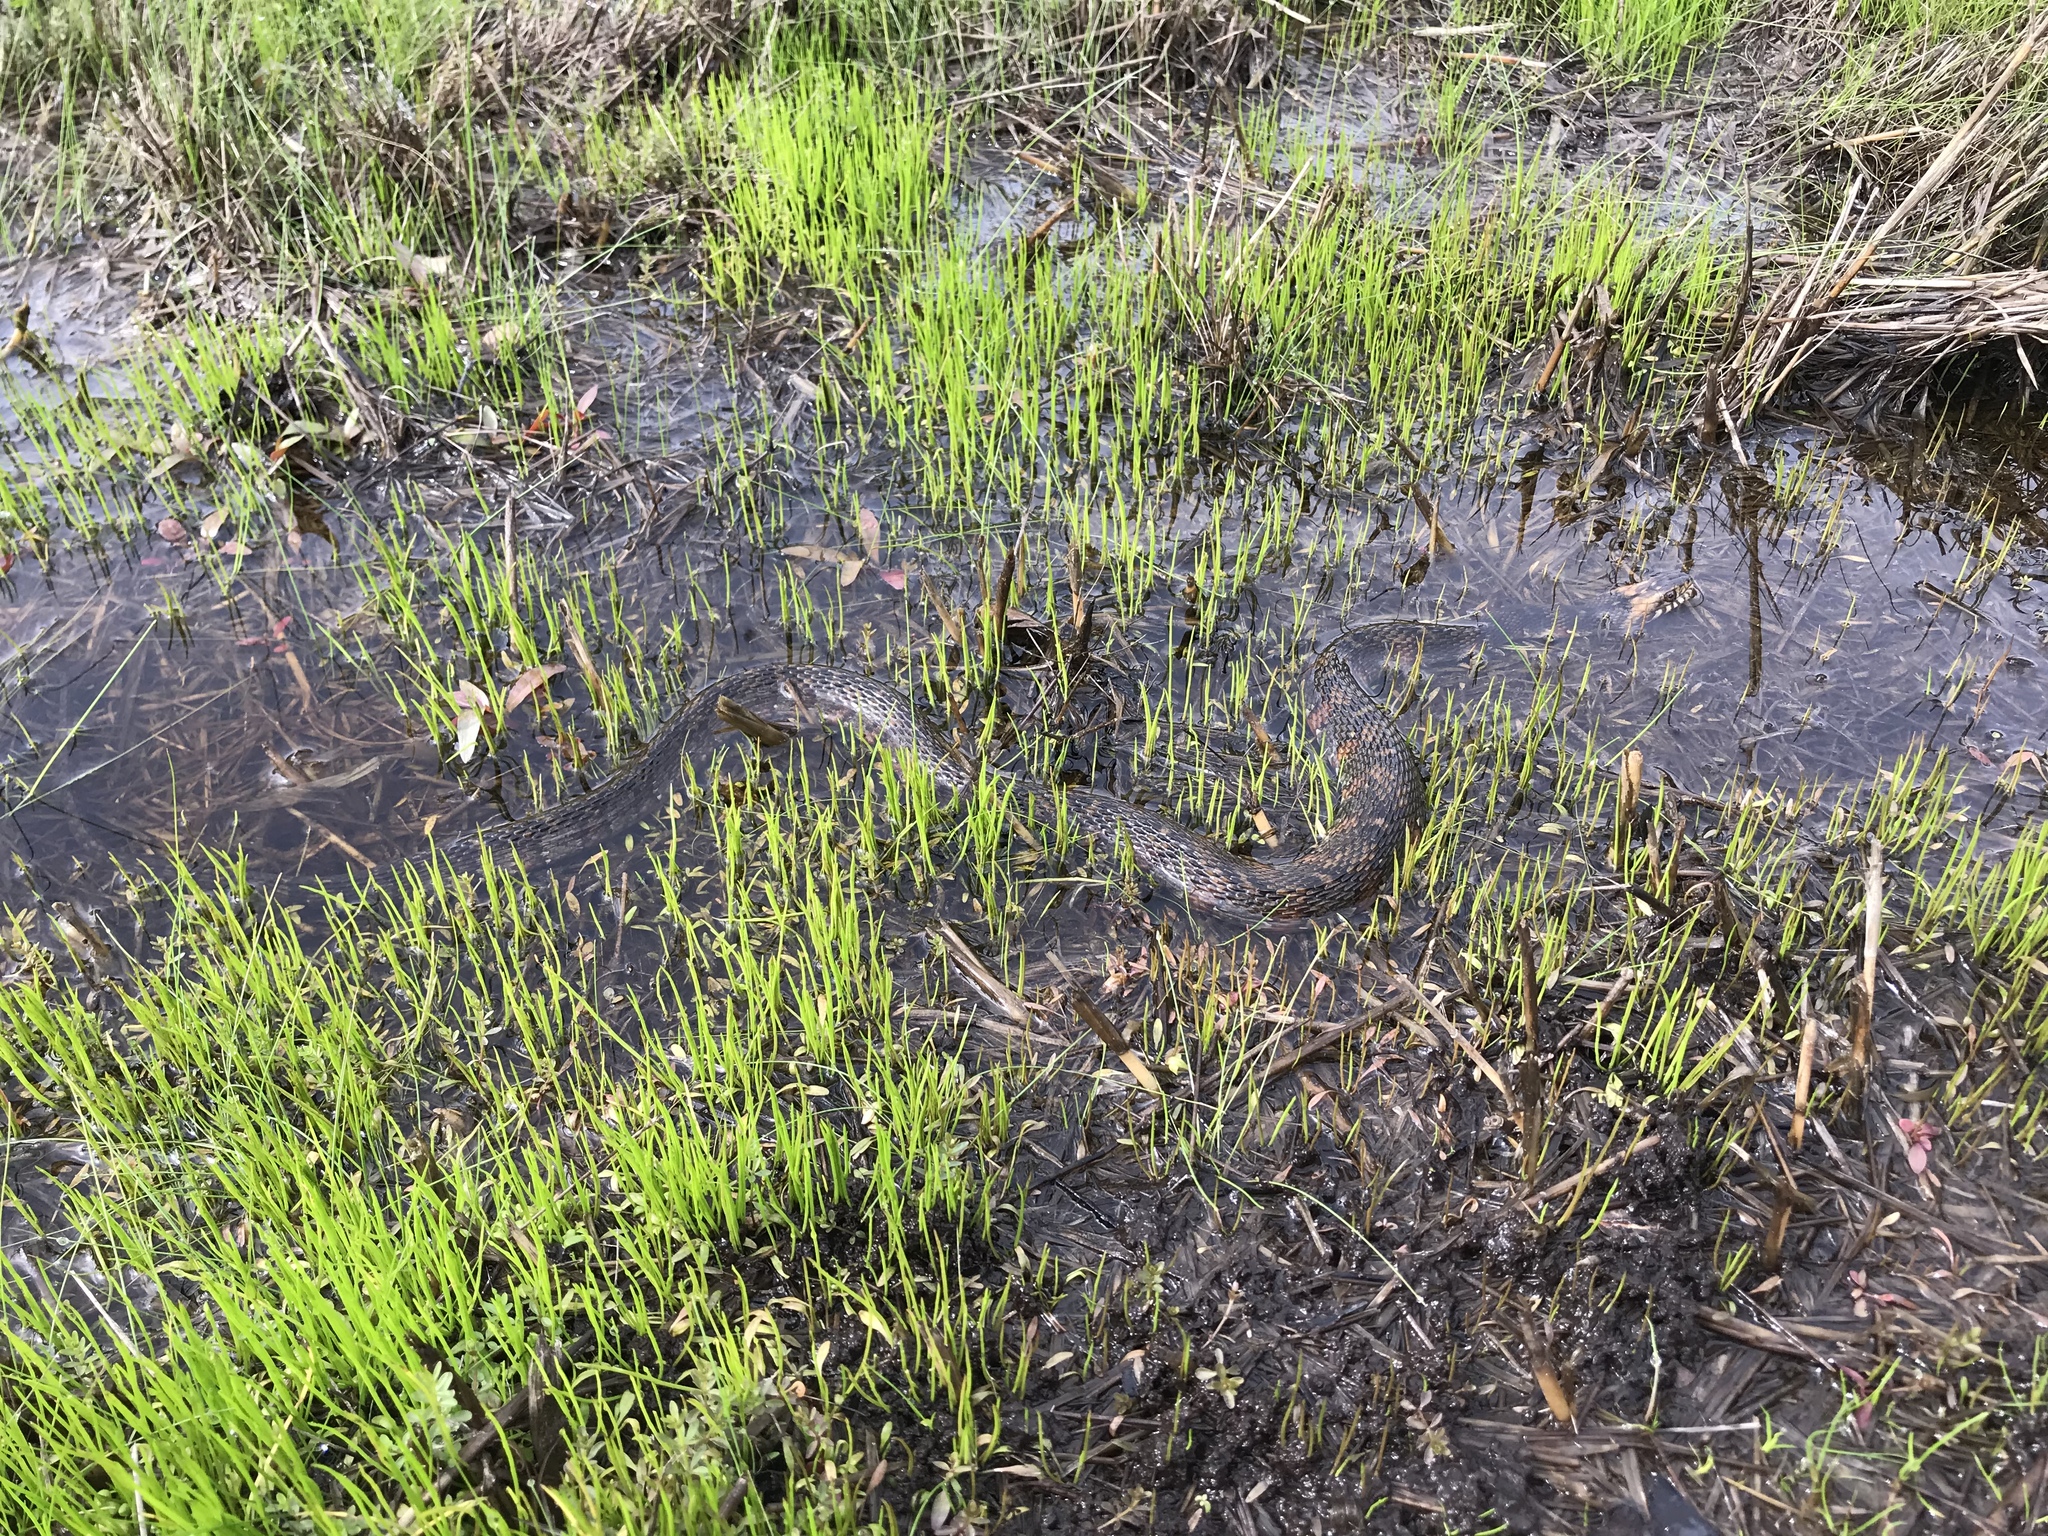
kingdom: Animalia
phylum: Chordata
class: Squamata
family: Colubridae
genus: Nerodia
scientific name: Nerodia fasciata
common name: Southern water snake
